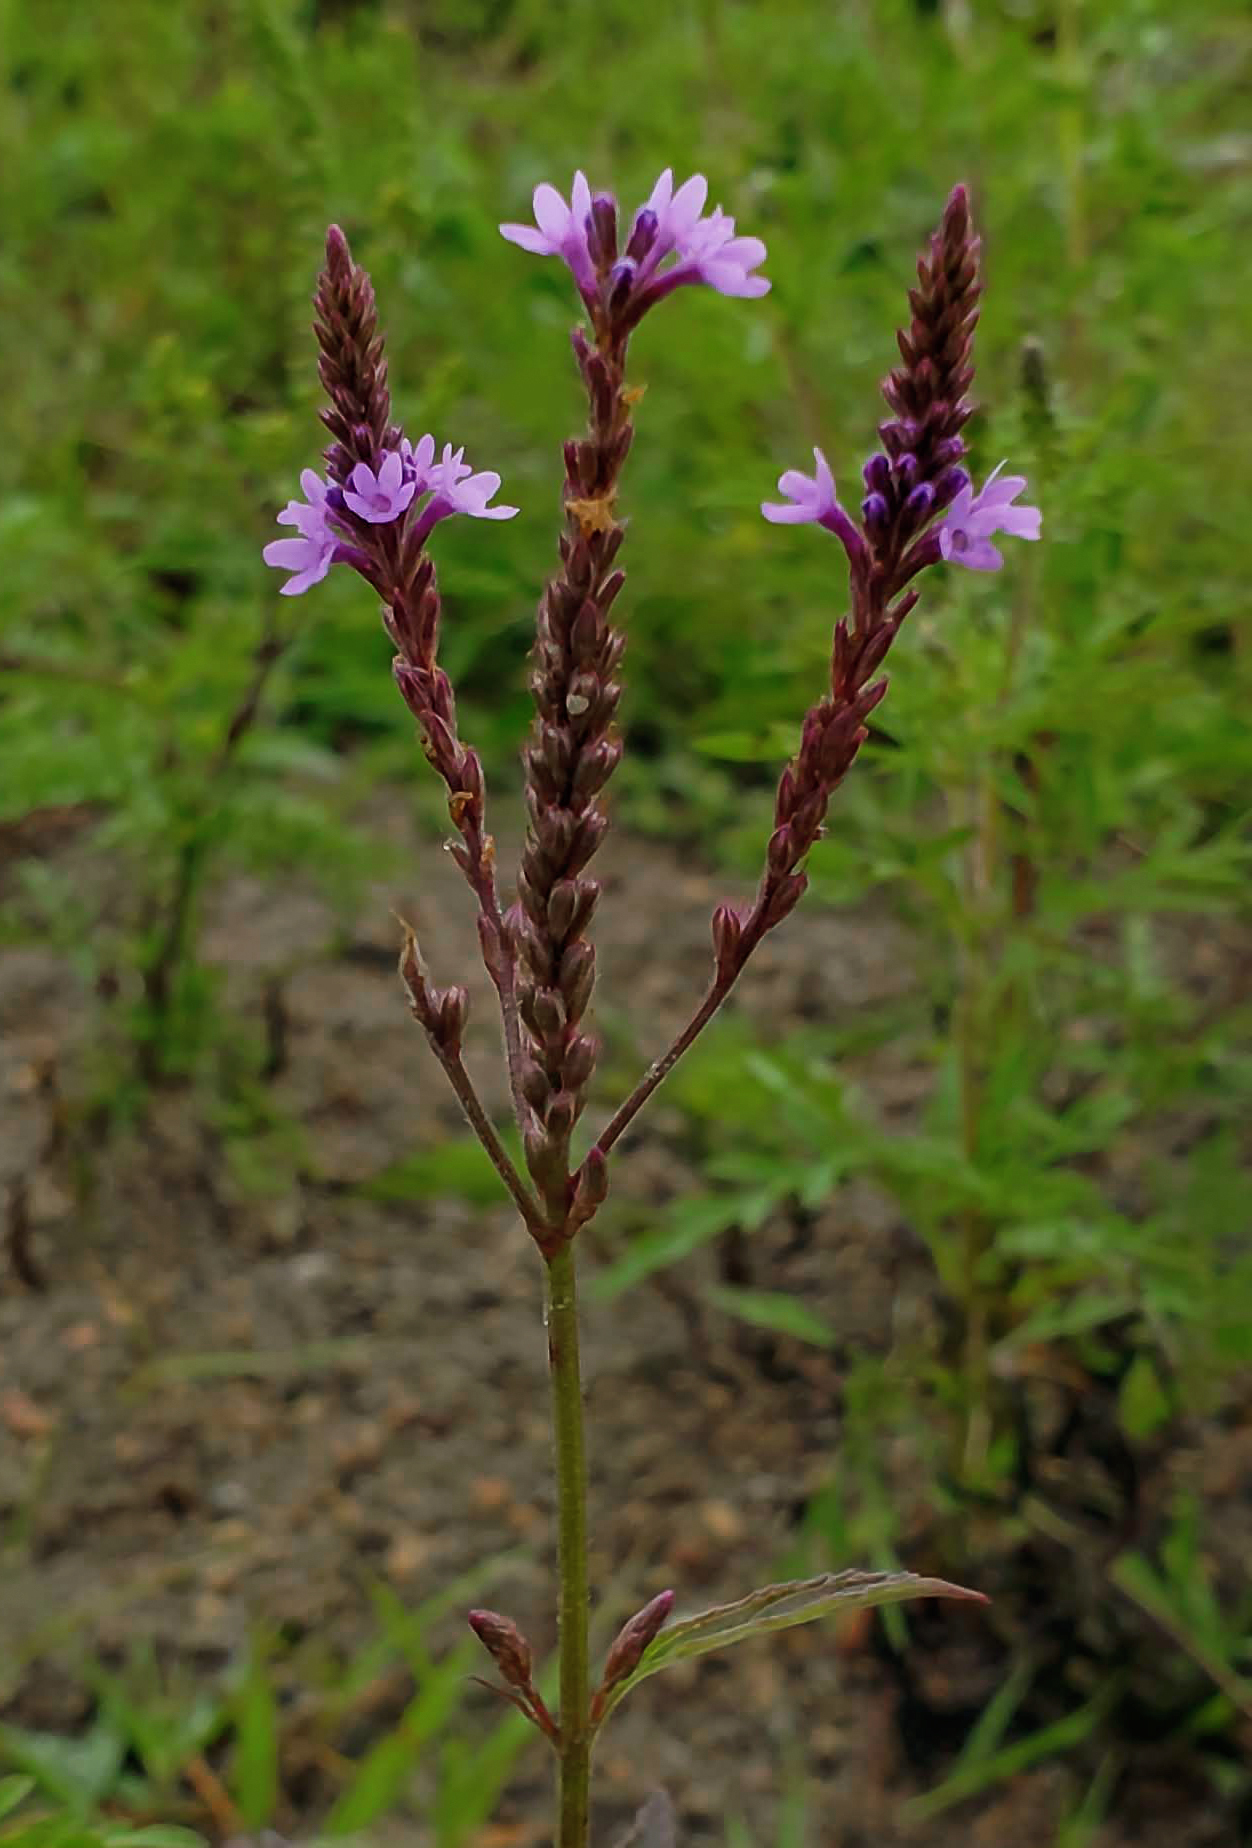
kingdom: Plantae
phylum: Tracheophyta
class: Magnoliopsida
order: Lamiales
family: Verbenaceae
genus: Verbena
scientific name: Verbena hastata
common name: American blue vervain
